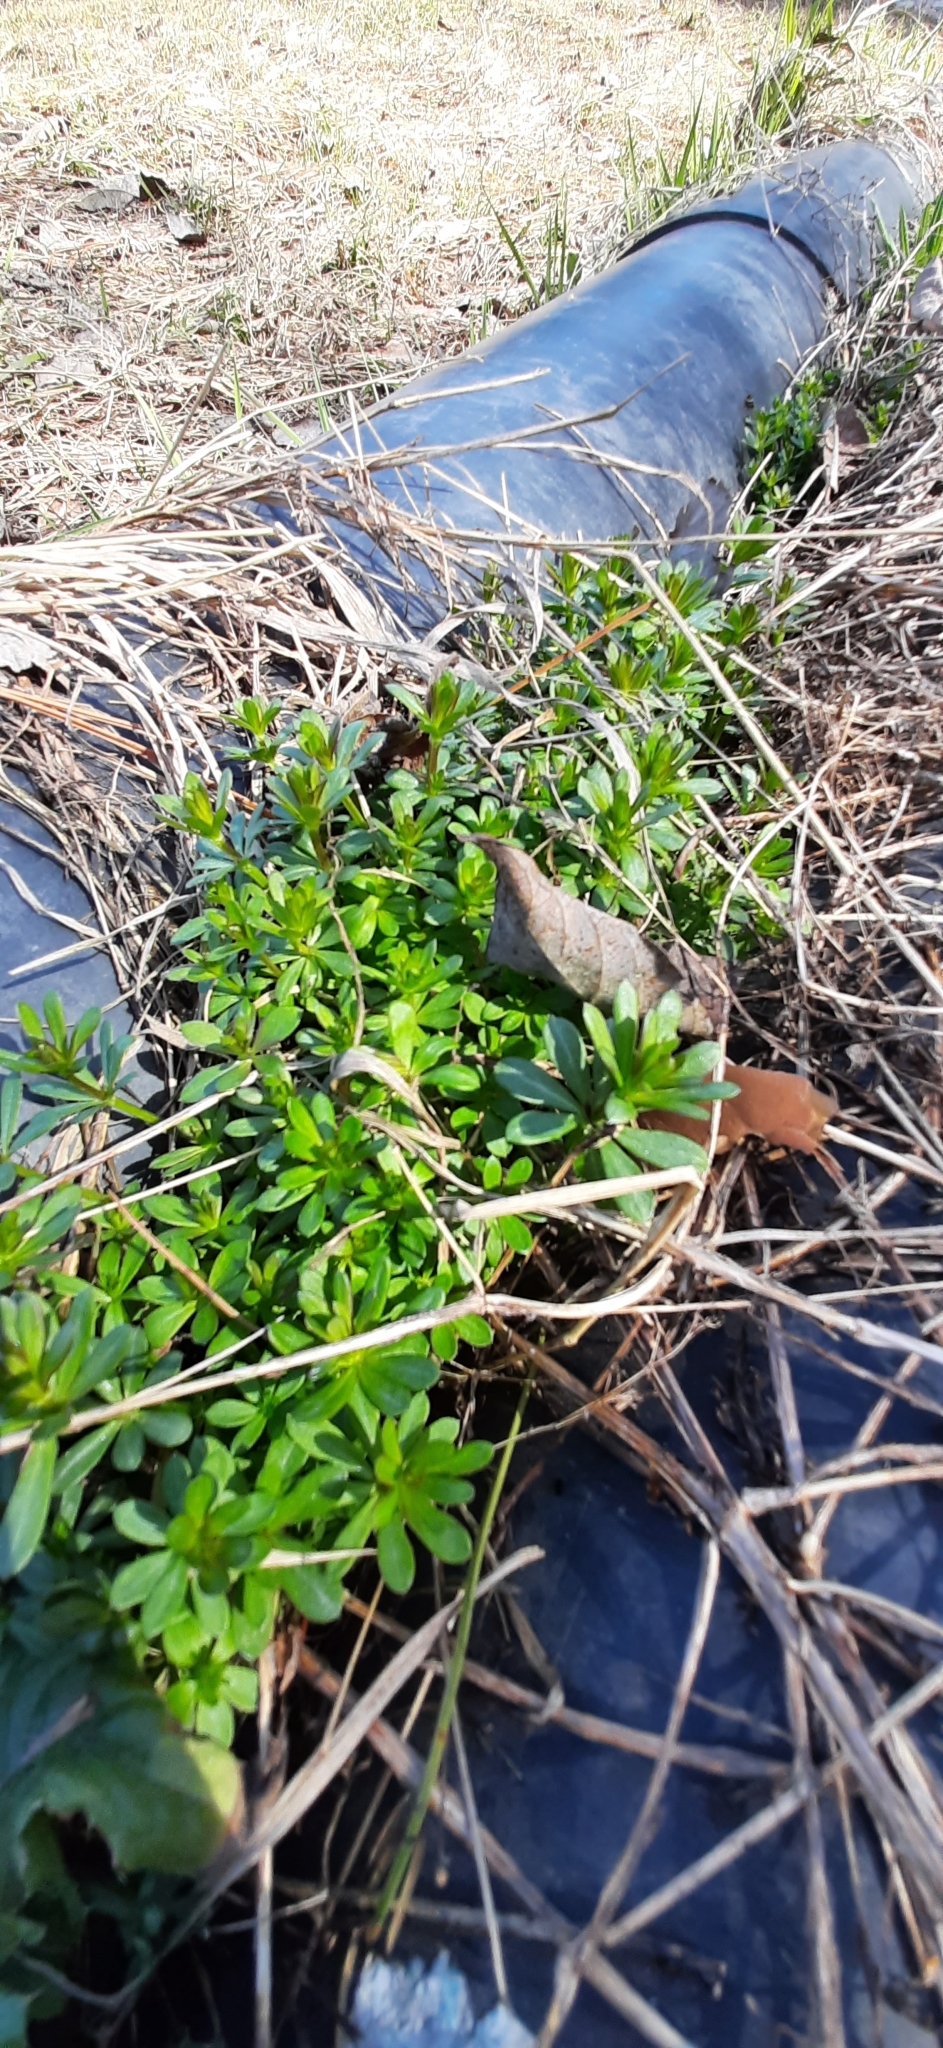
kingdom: Plantae
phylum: Tracheophyta
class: Magnoliopsida
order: Gentianales
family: Rubiaceae
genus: Galium
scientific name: Galium mollugo
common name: Hedge bedstraw
